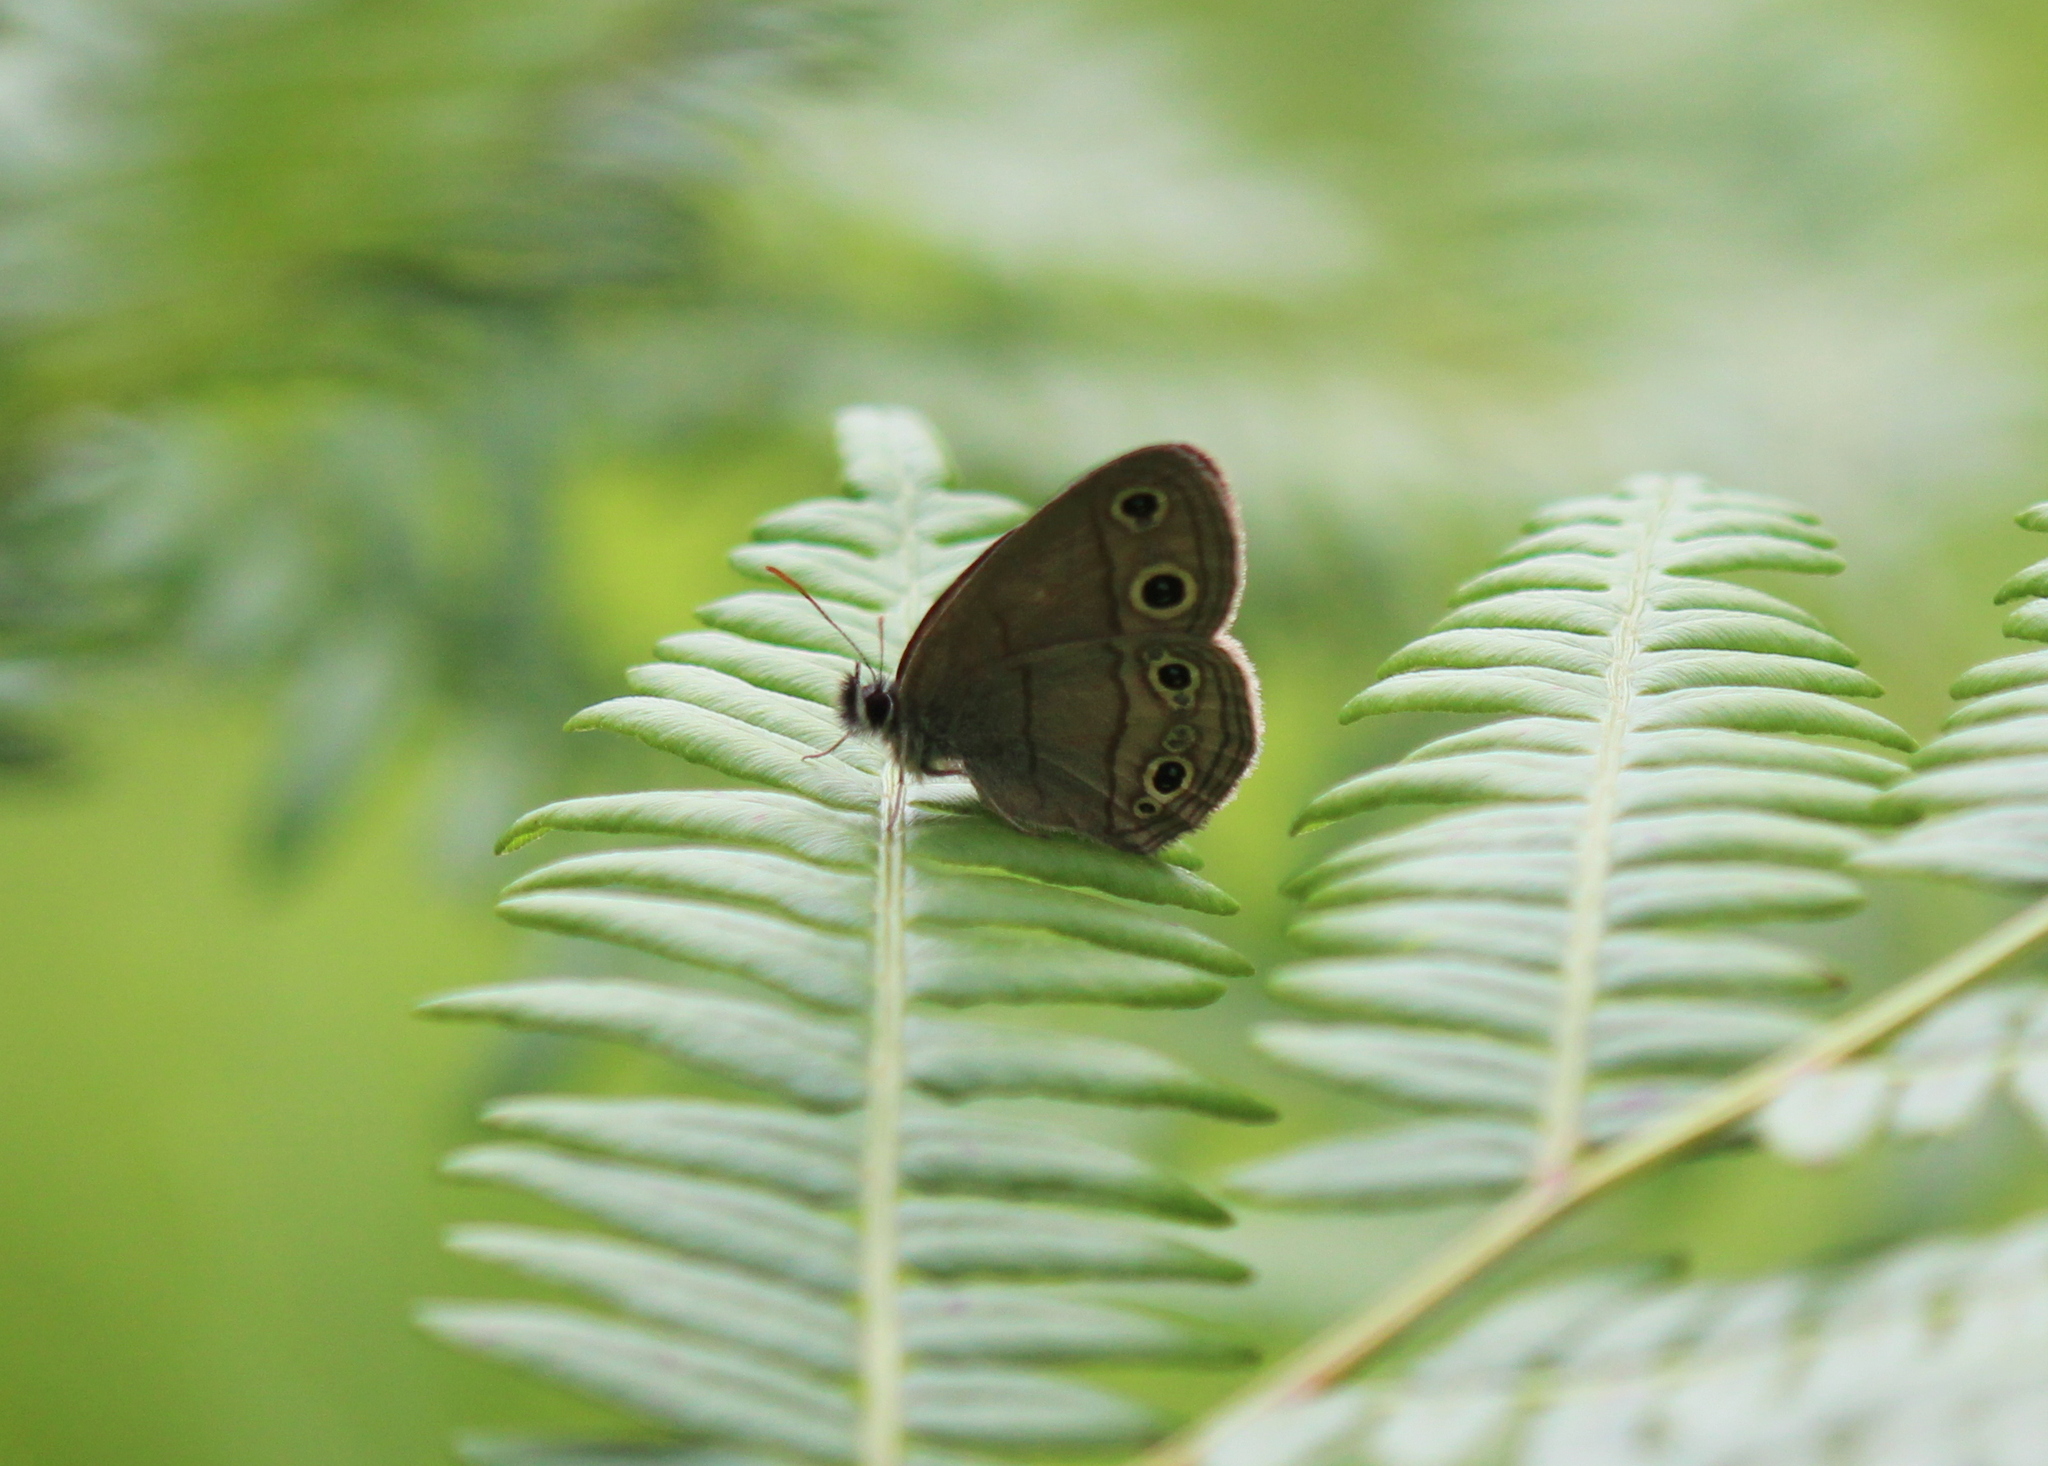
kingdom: Animalia
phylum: Arthropoda
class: Insecta
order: Lepidoptera
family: Nymphalidae
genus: Euptychia
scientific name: Euptychia cymela
